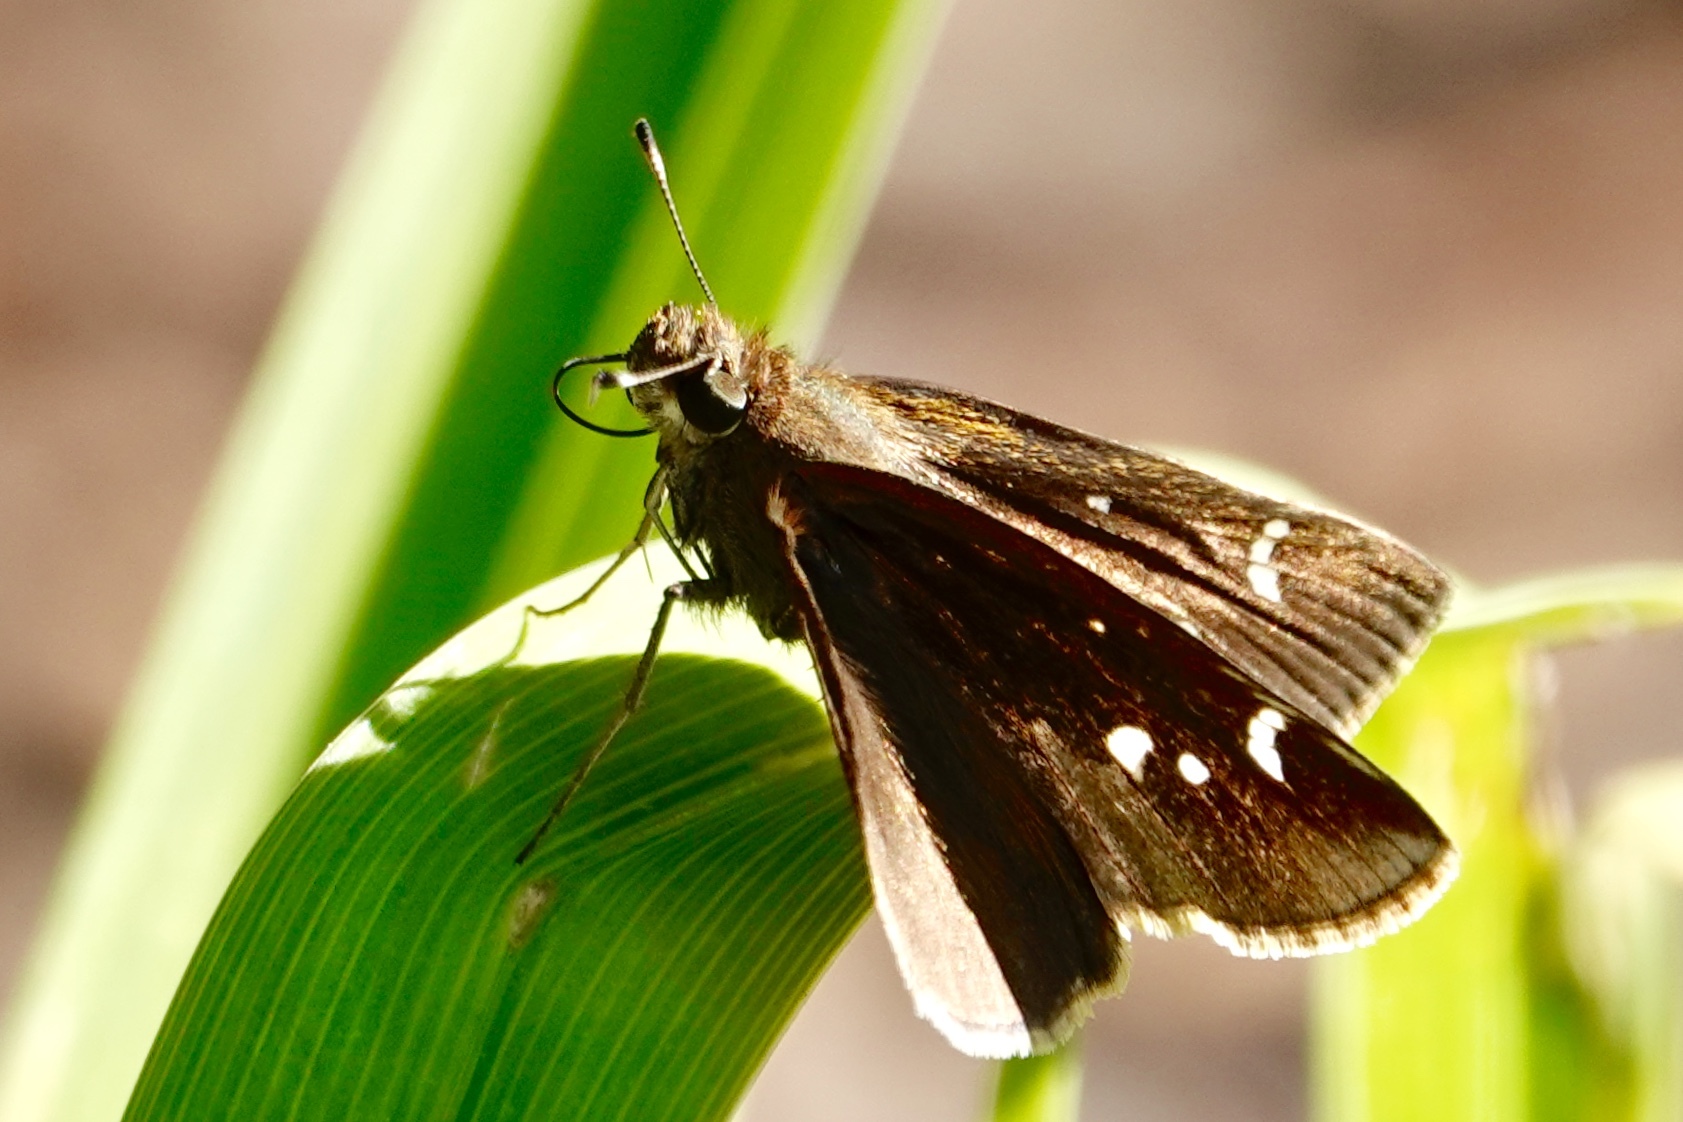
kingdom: Animalia
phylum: Arthropoda
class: Insecta
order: Lepidoptera
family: Hesperiidae
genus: Lerema
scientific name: Lerema accius
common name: Clouded skipper
